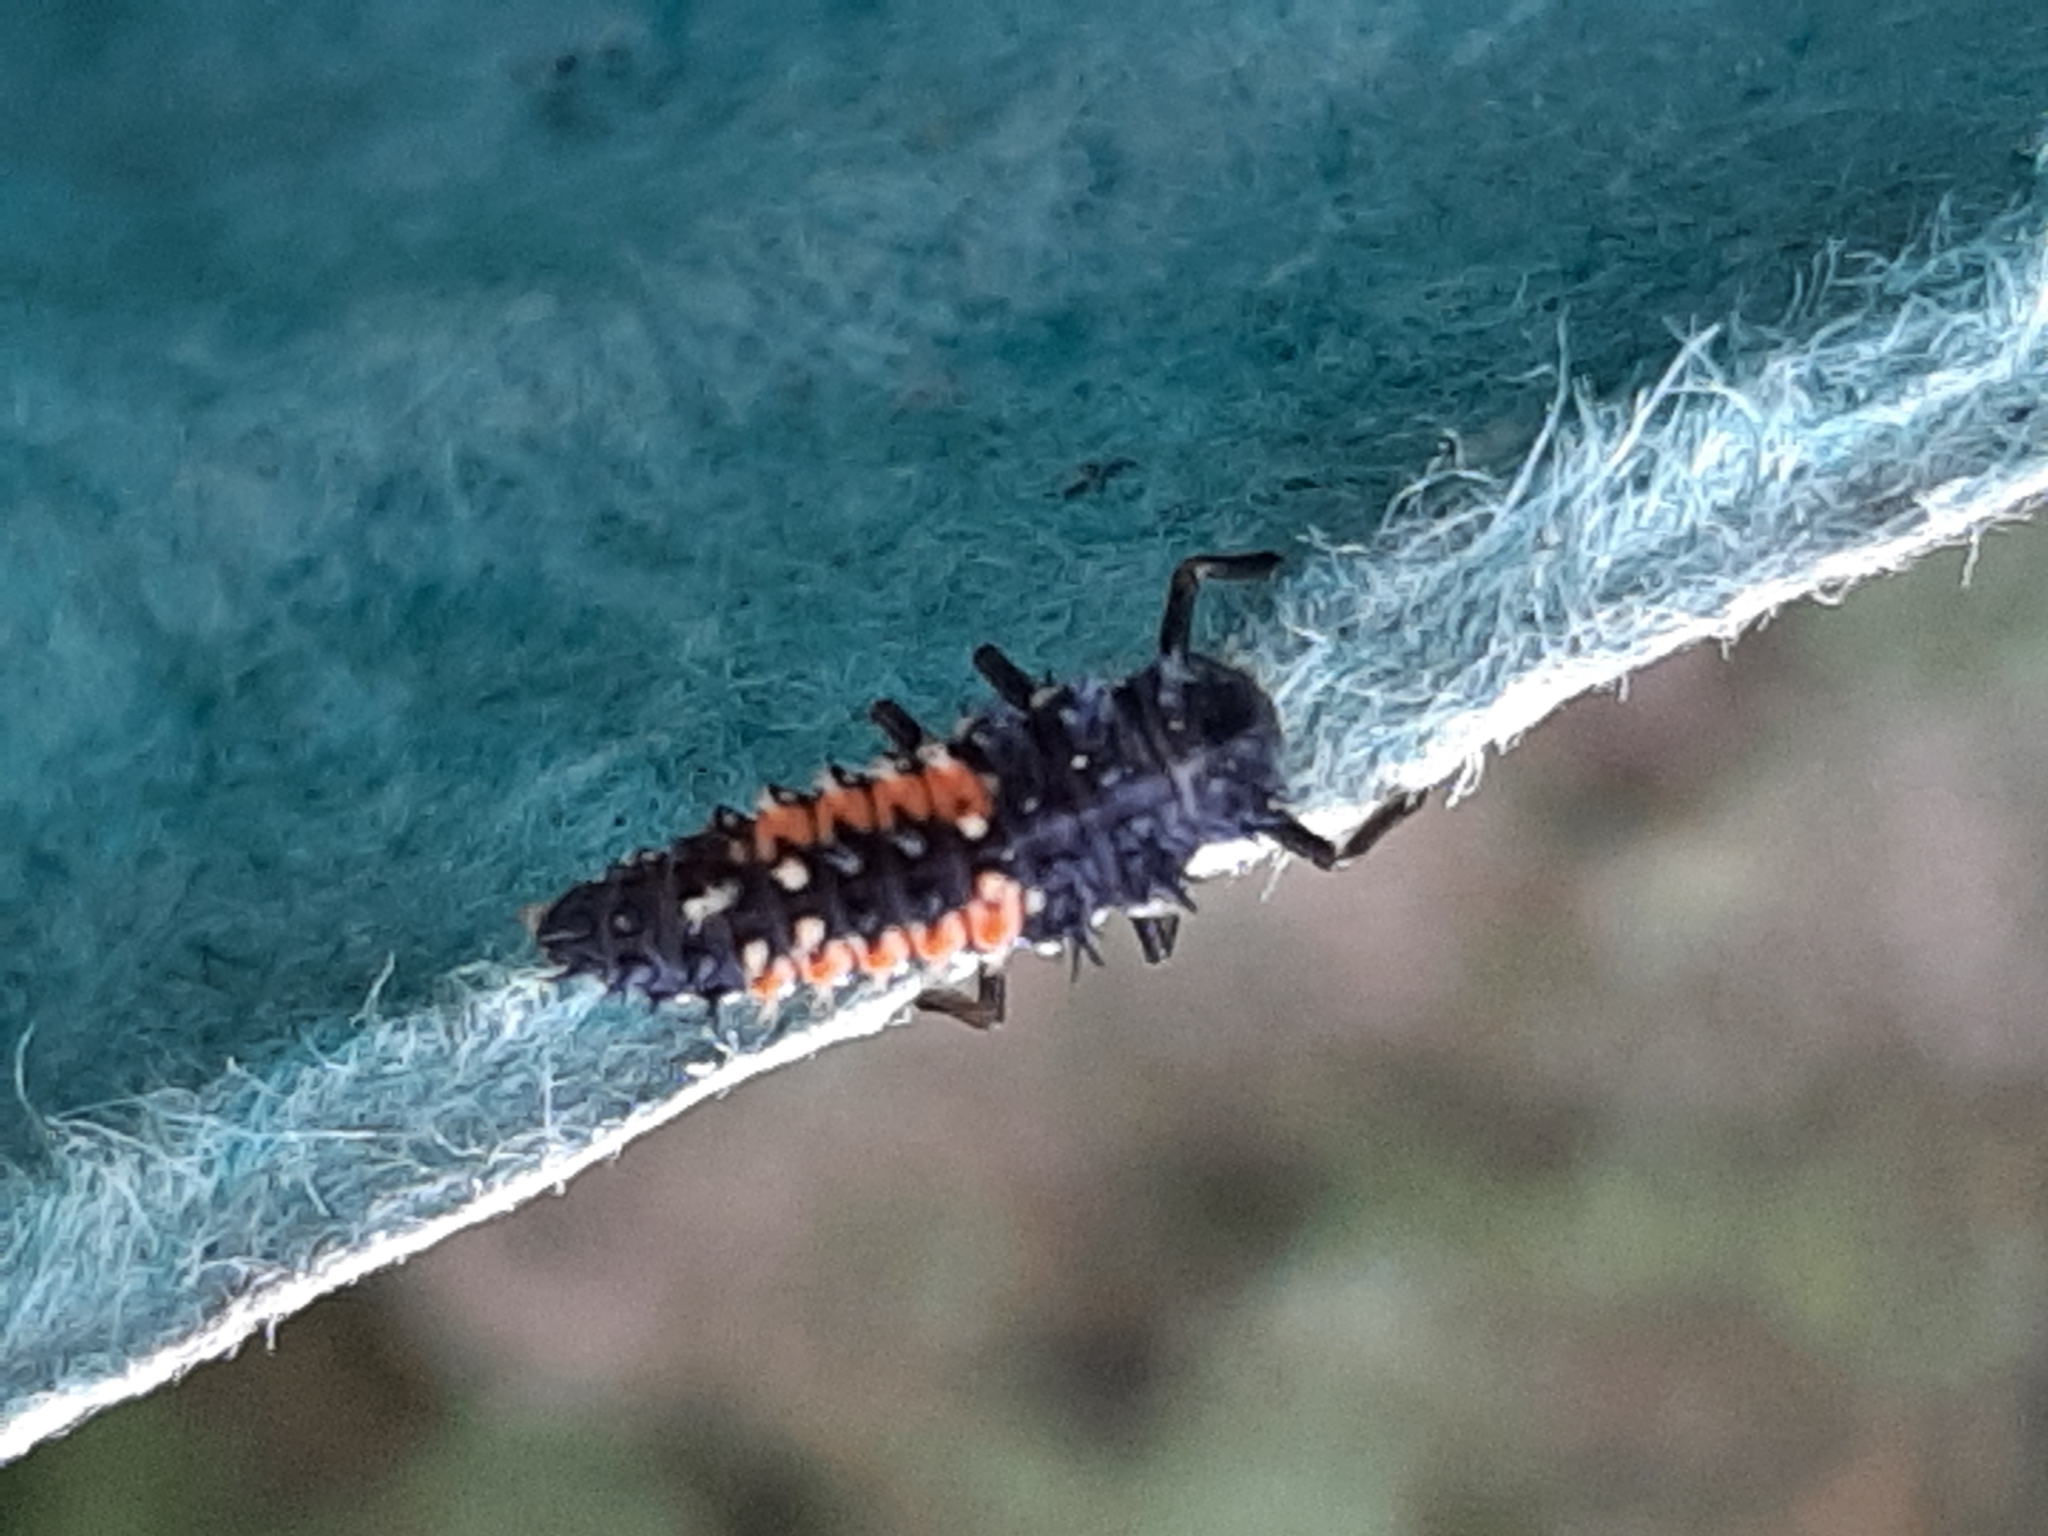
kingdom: Animalia
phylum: Arthropoda
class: Insecta
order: Coleoptera
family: Coccinellidae
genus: Harmonia
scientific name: Harmonia axyridis
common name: Harlequin ladybird
